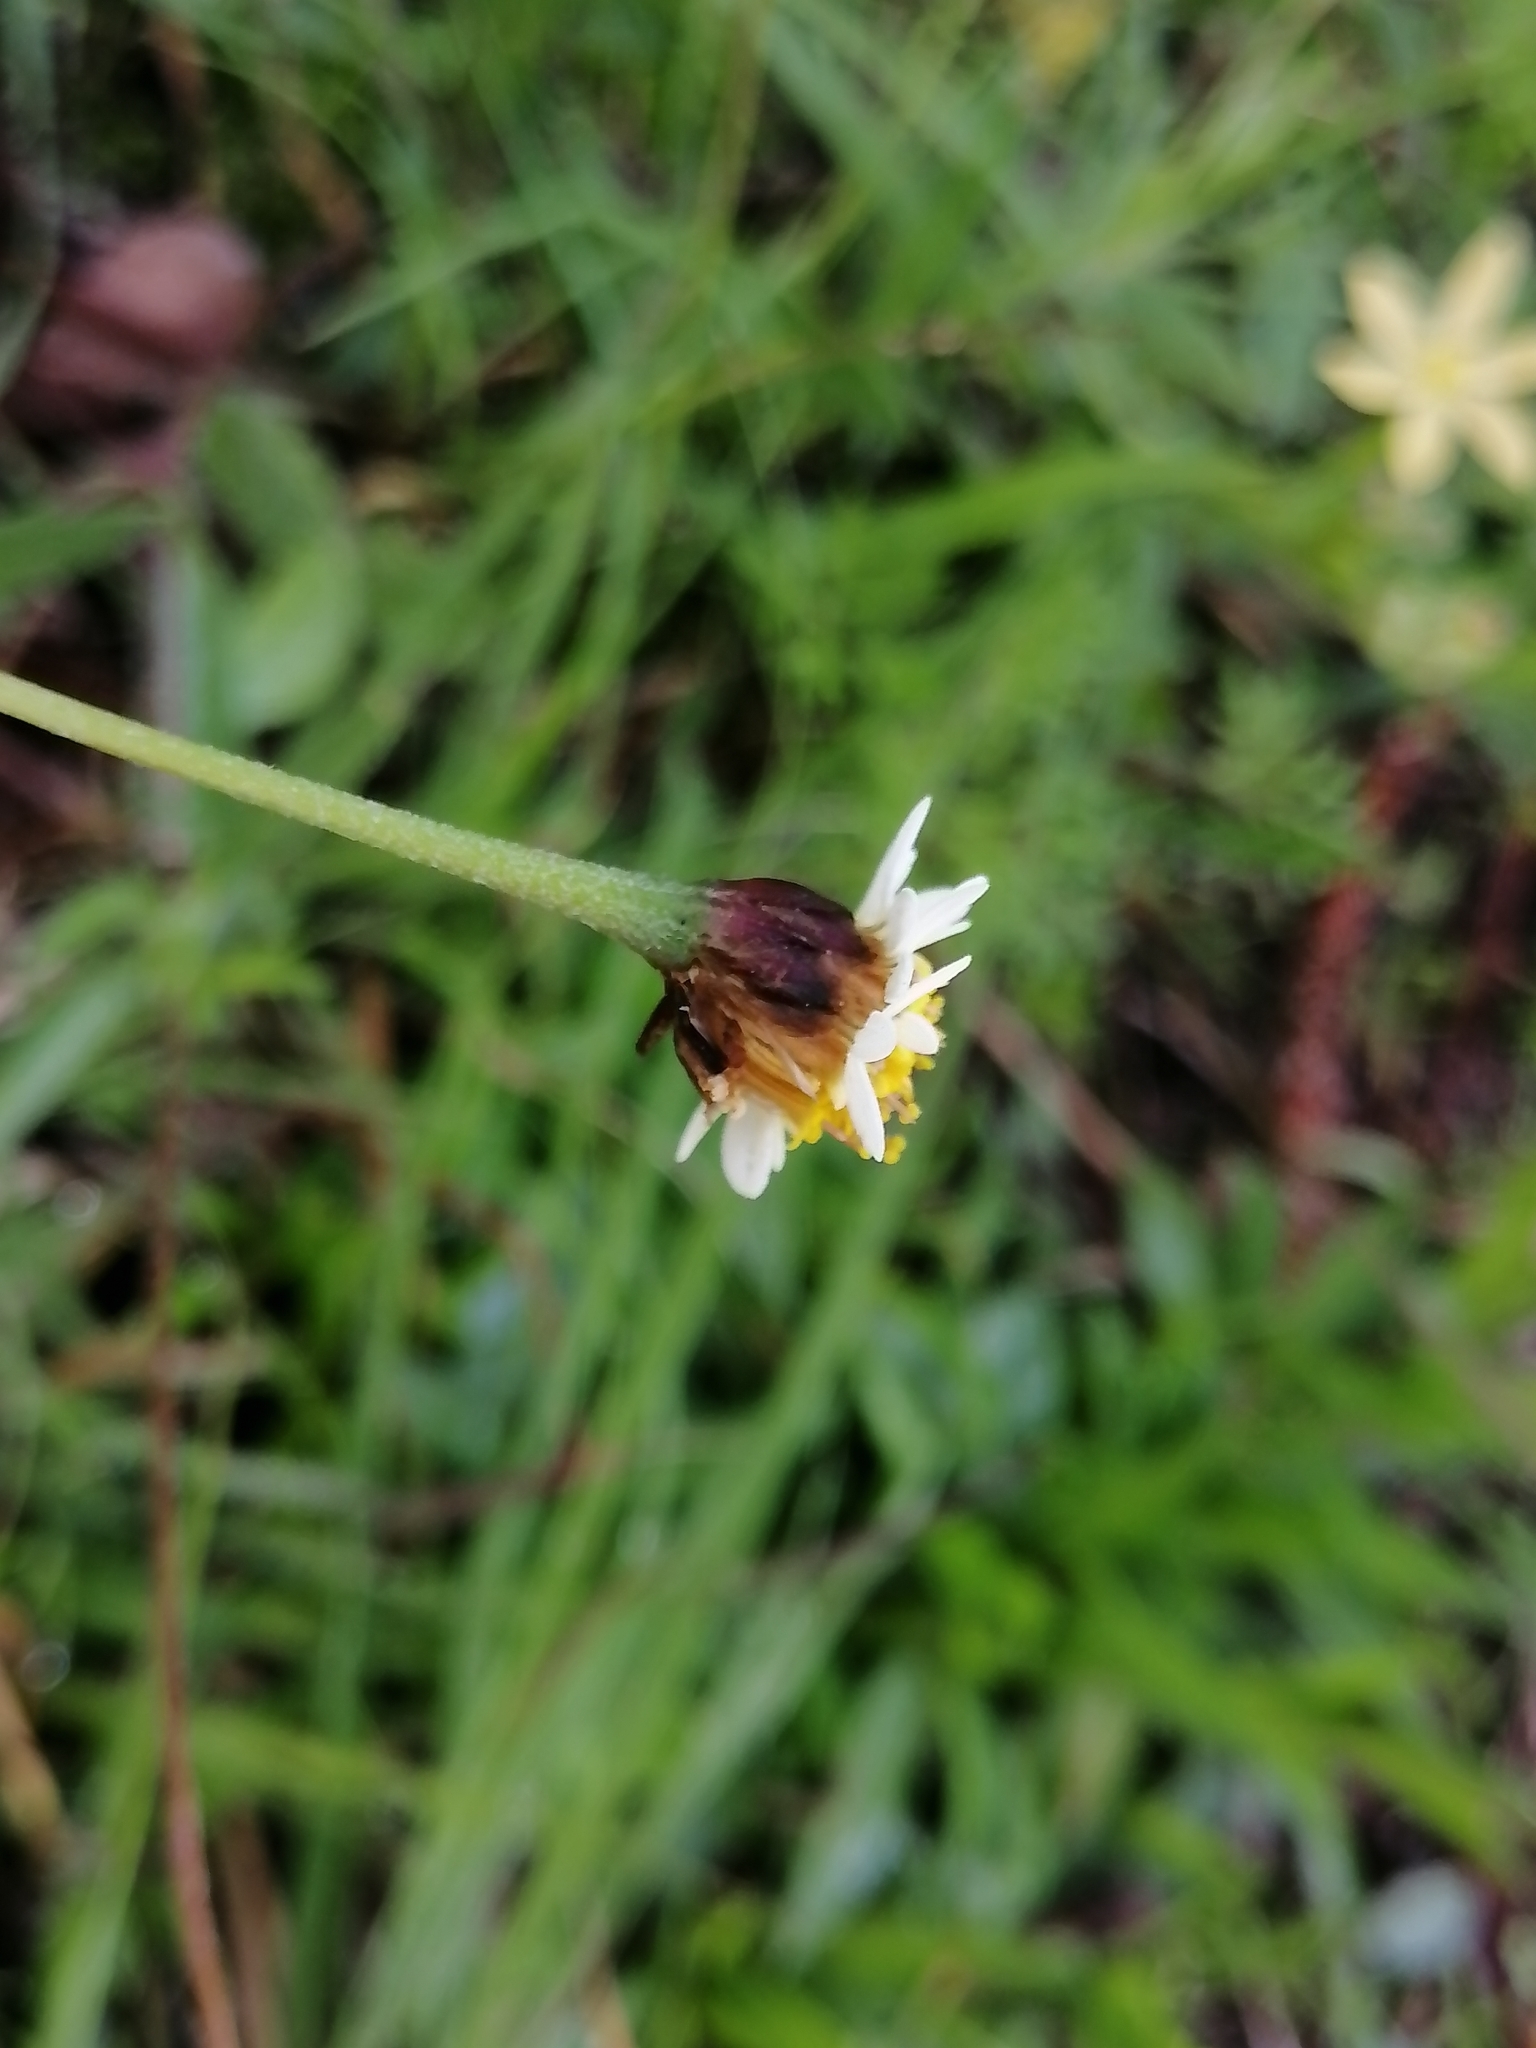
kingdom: Plantae
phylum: Tracheophyta
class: Magnoliopsida
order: Asterales
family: Asteraceae
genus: Tridax
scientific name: Tridax coronopifolia
